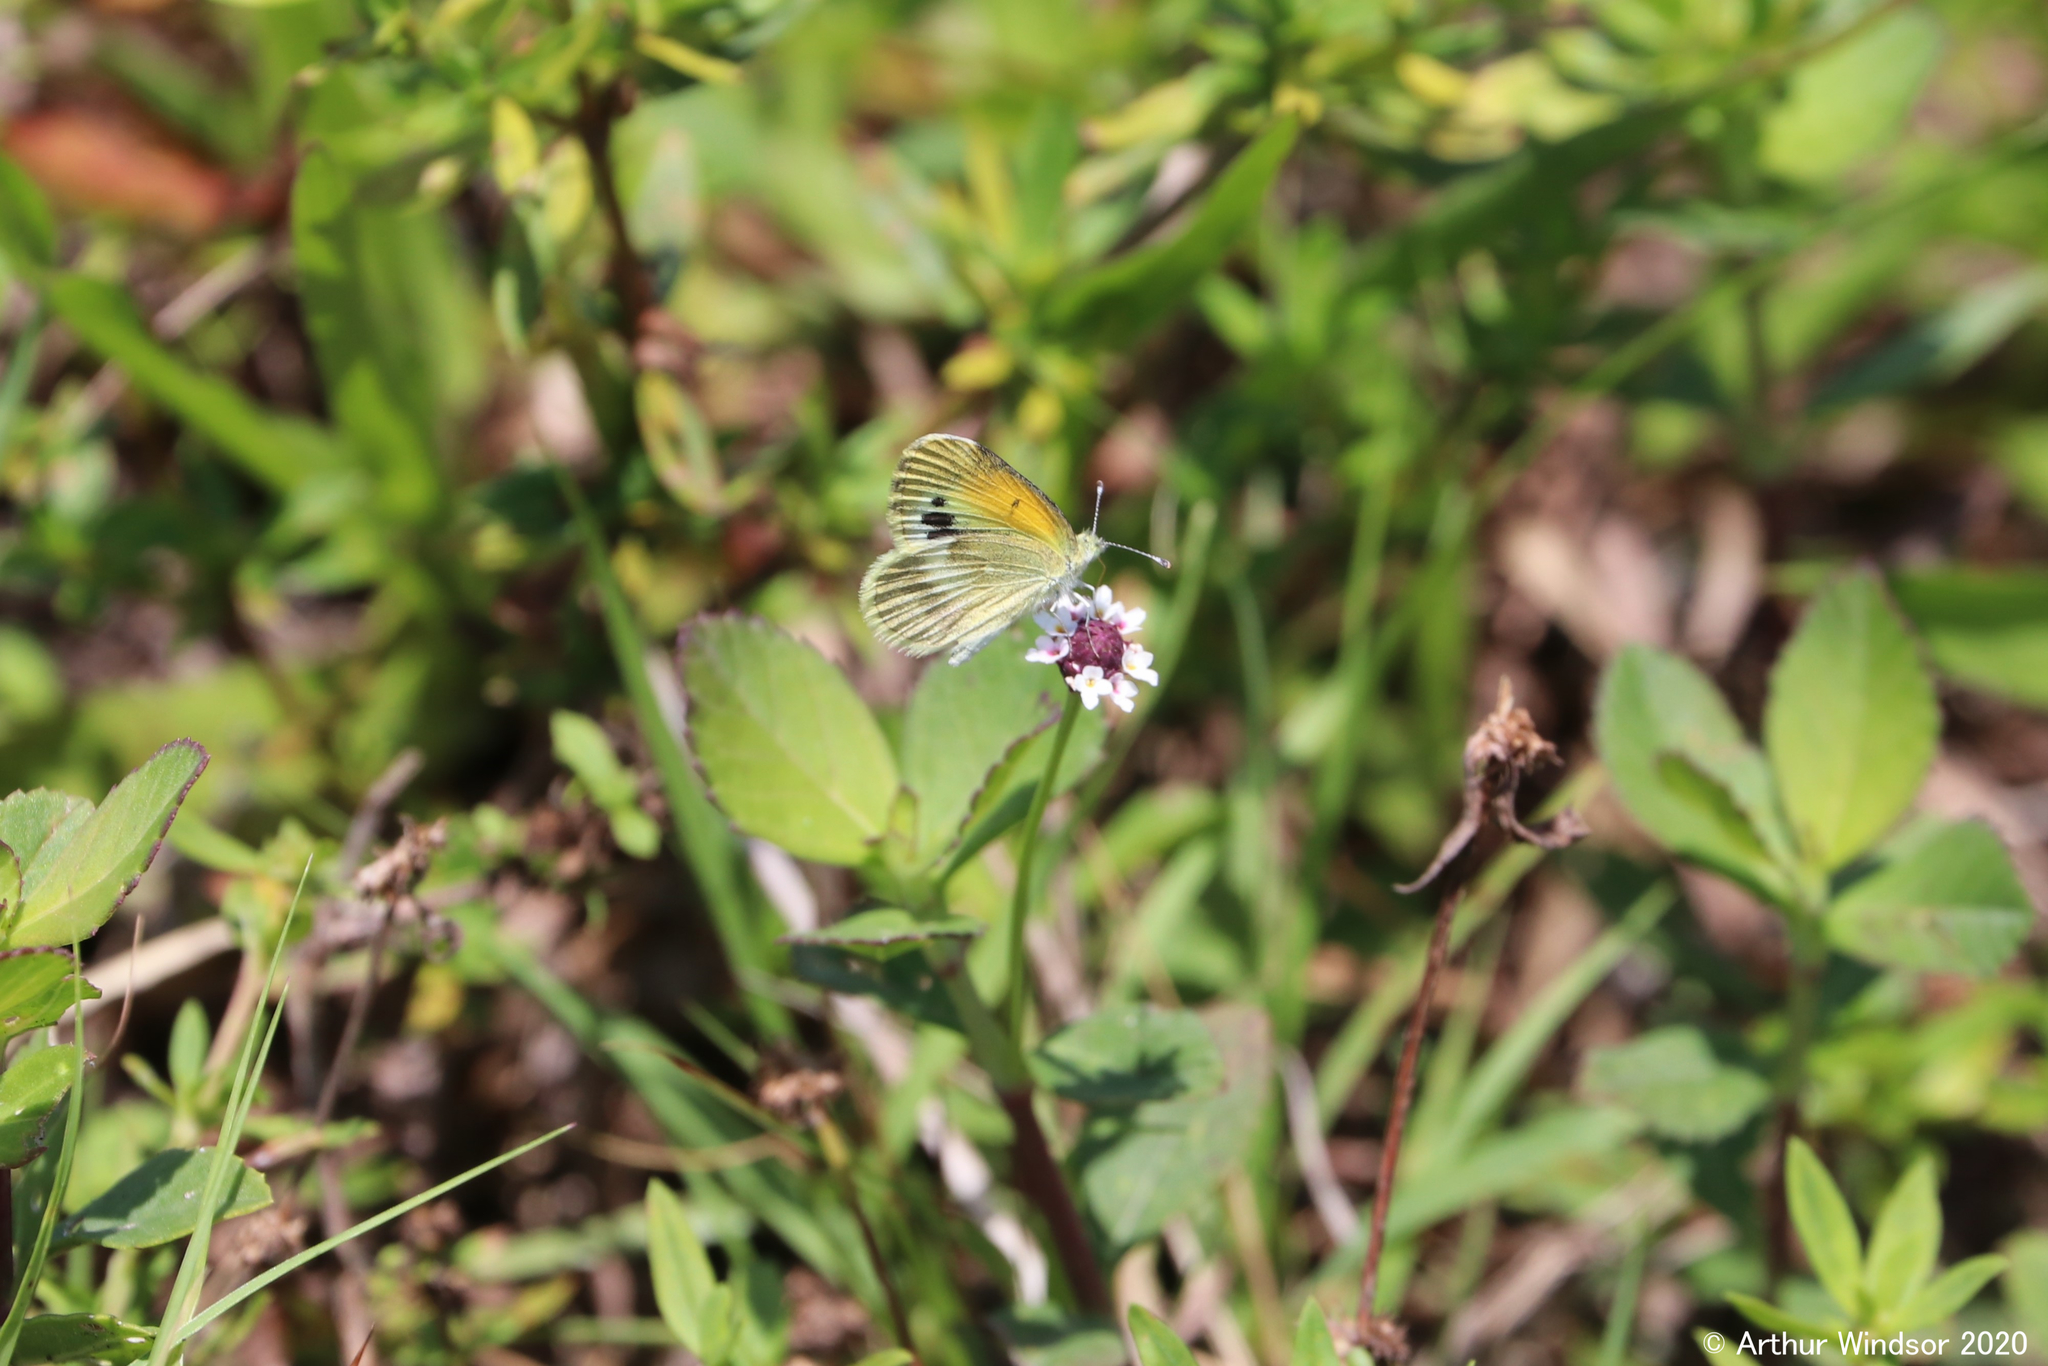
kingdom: Animalia
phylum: Arthropoda
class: Insecta
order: Lepidoptera
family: Pieridae
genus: Nathalis
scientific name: Nathalis iole
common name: Dainty sulphur
